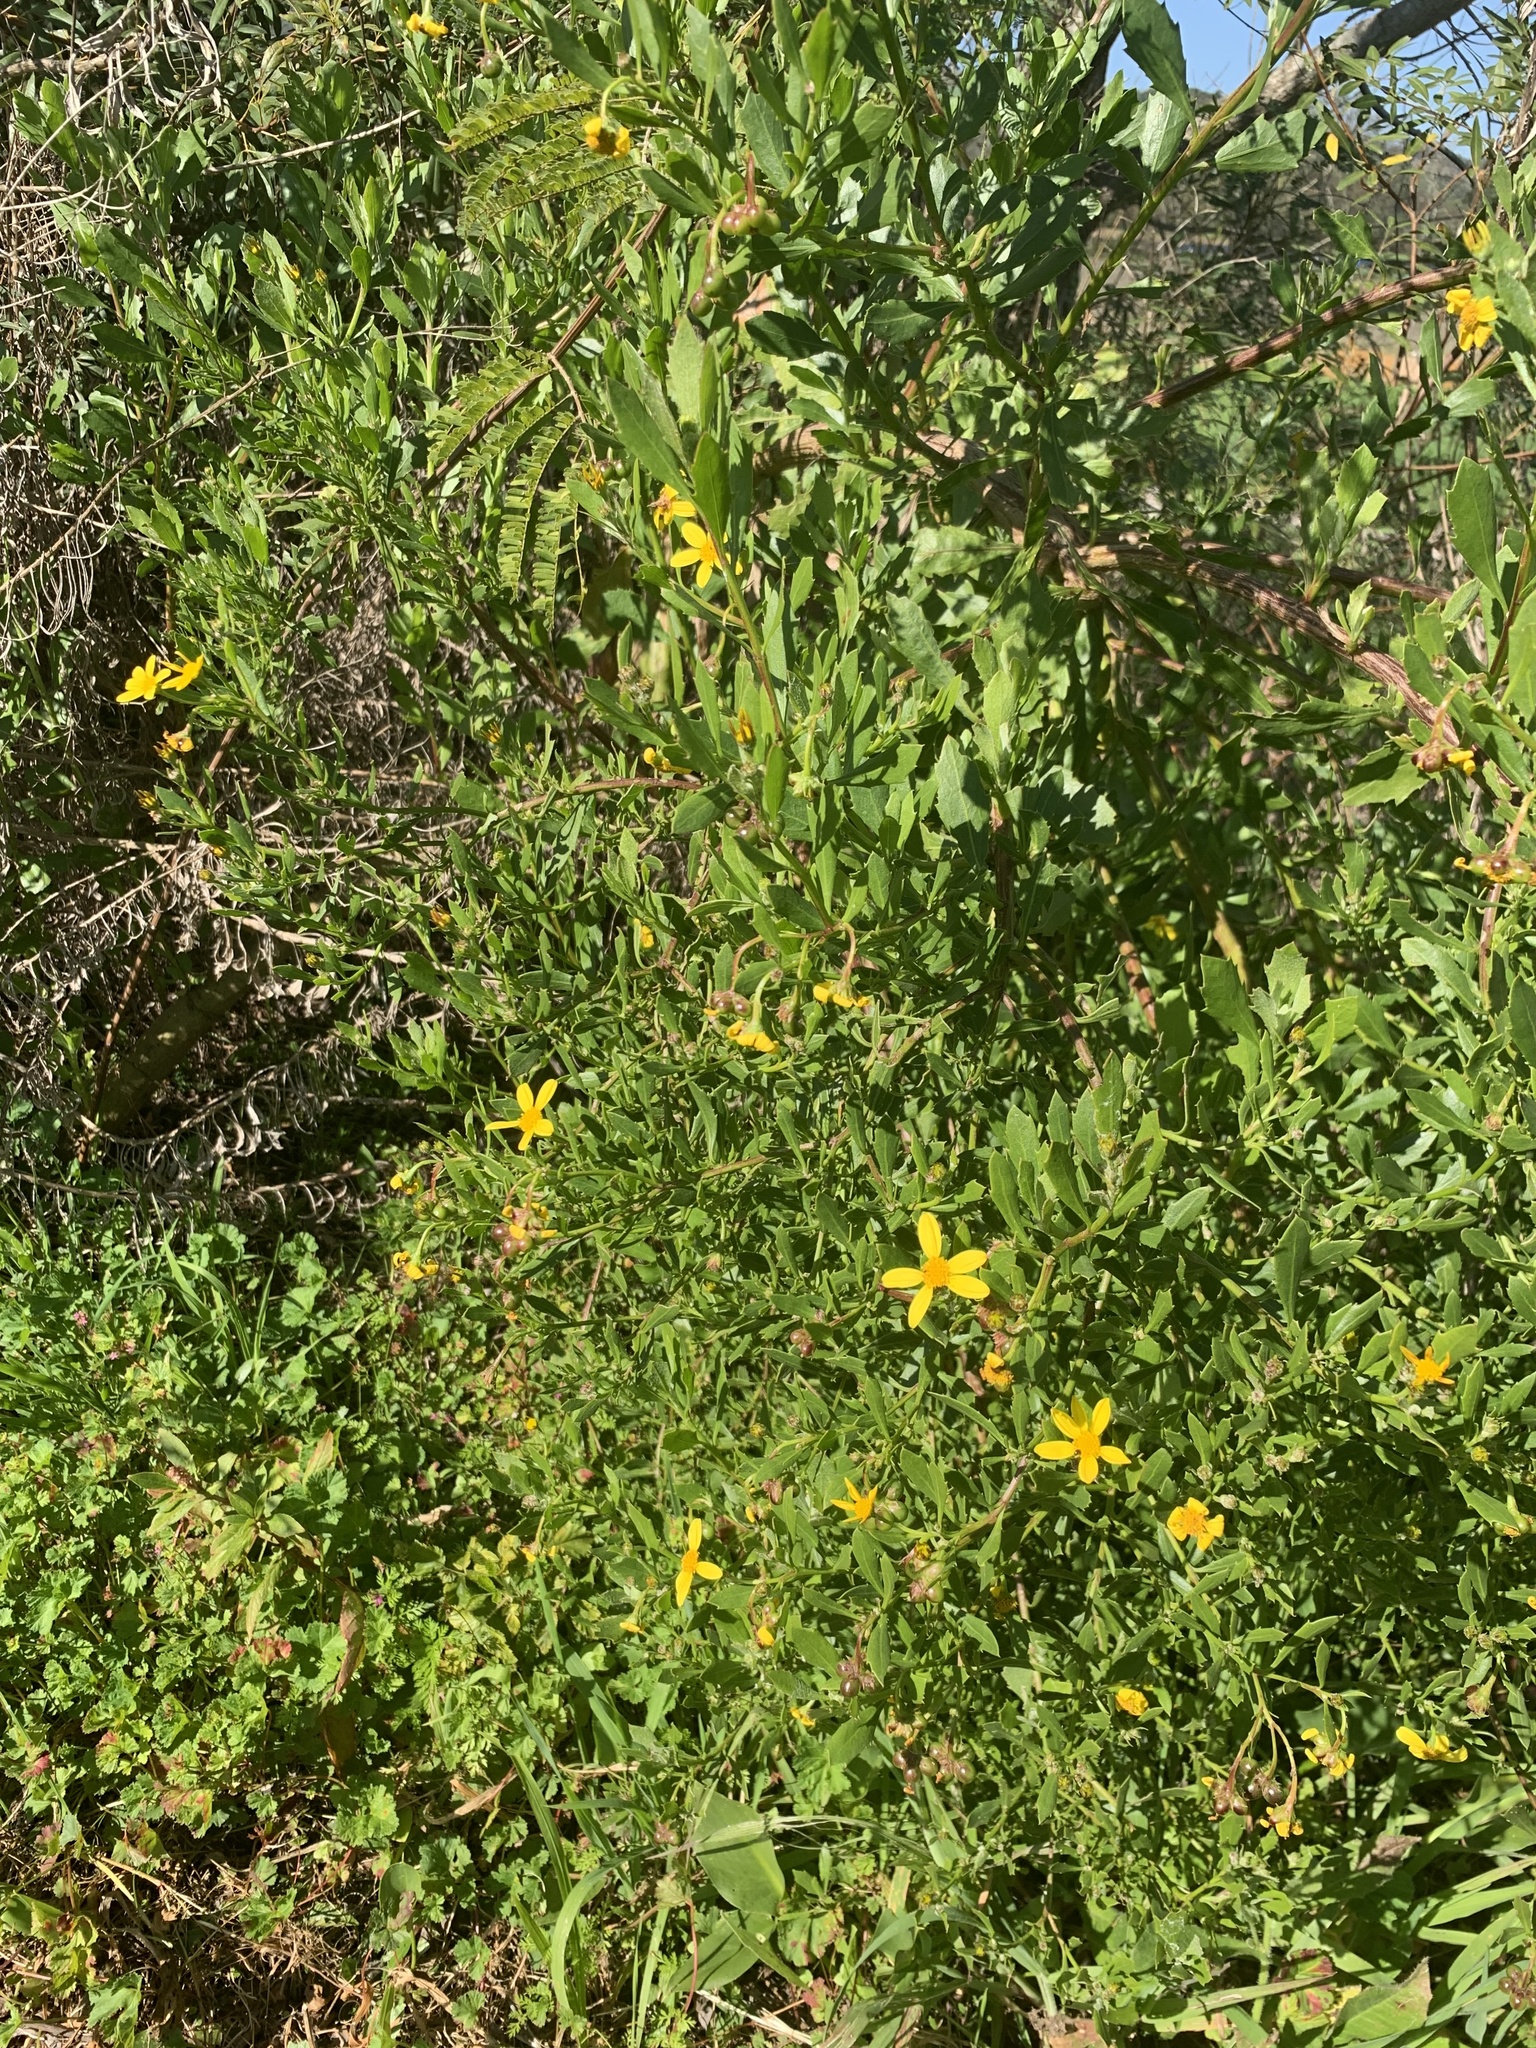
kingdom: Plantae
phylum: Tracheophyta
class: Magnoliopsida
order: Asterales
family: Asteraceae
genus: Osteospermum
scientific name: Osteospermum moniliferum
